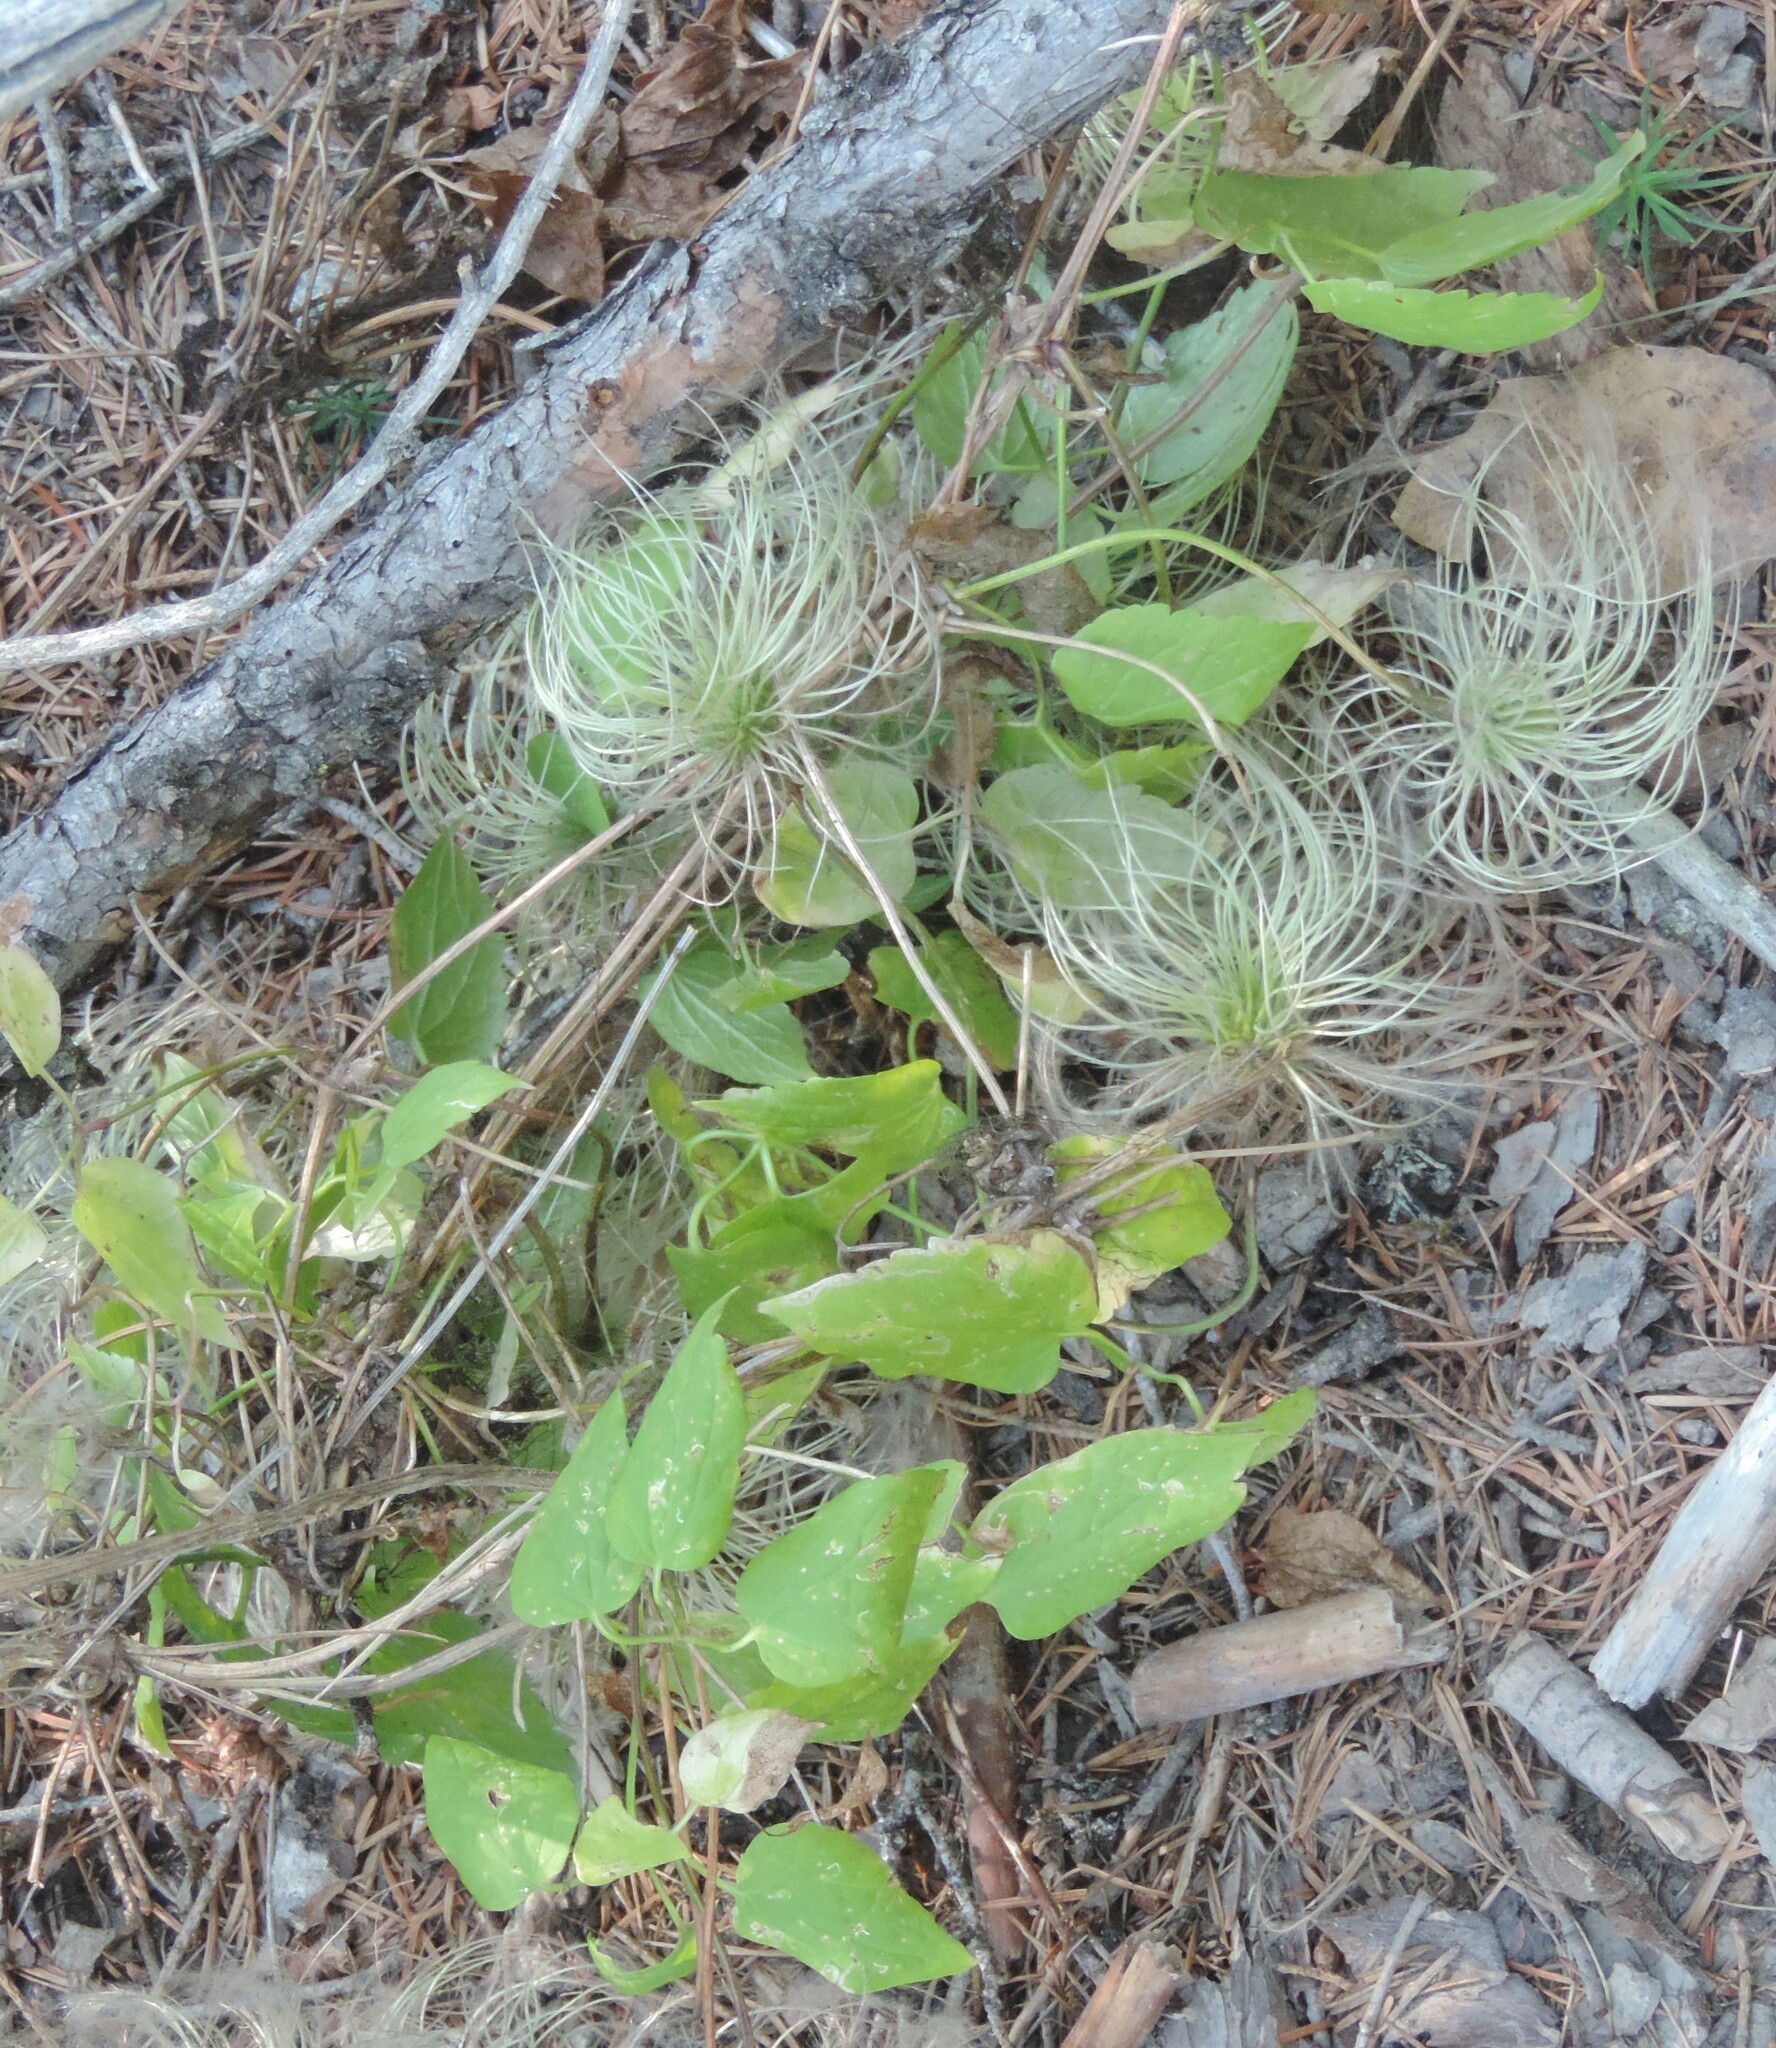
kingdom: Plantae
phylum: Tracheophyta
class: Magnoliopsida
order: Ranunculales
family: Ranunculaceae
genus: Clematis
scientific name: Clematis occidentalis
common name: Purple clematis
